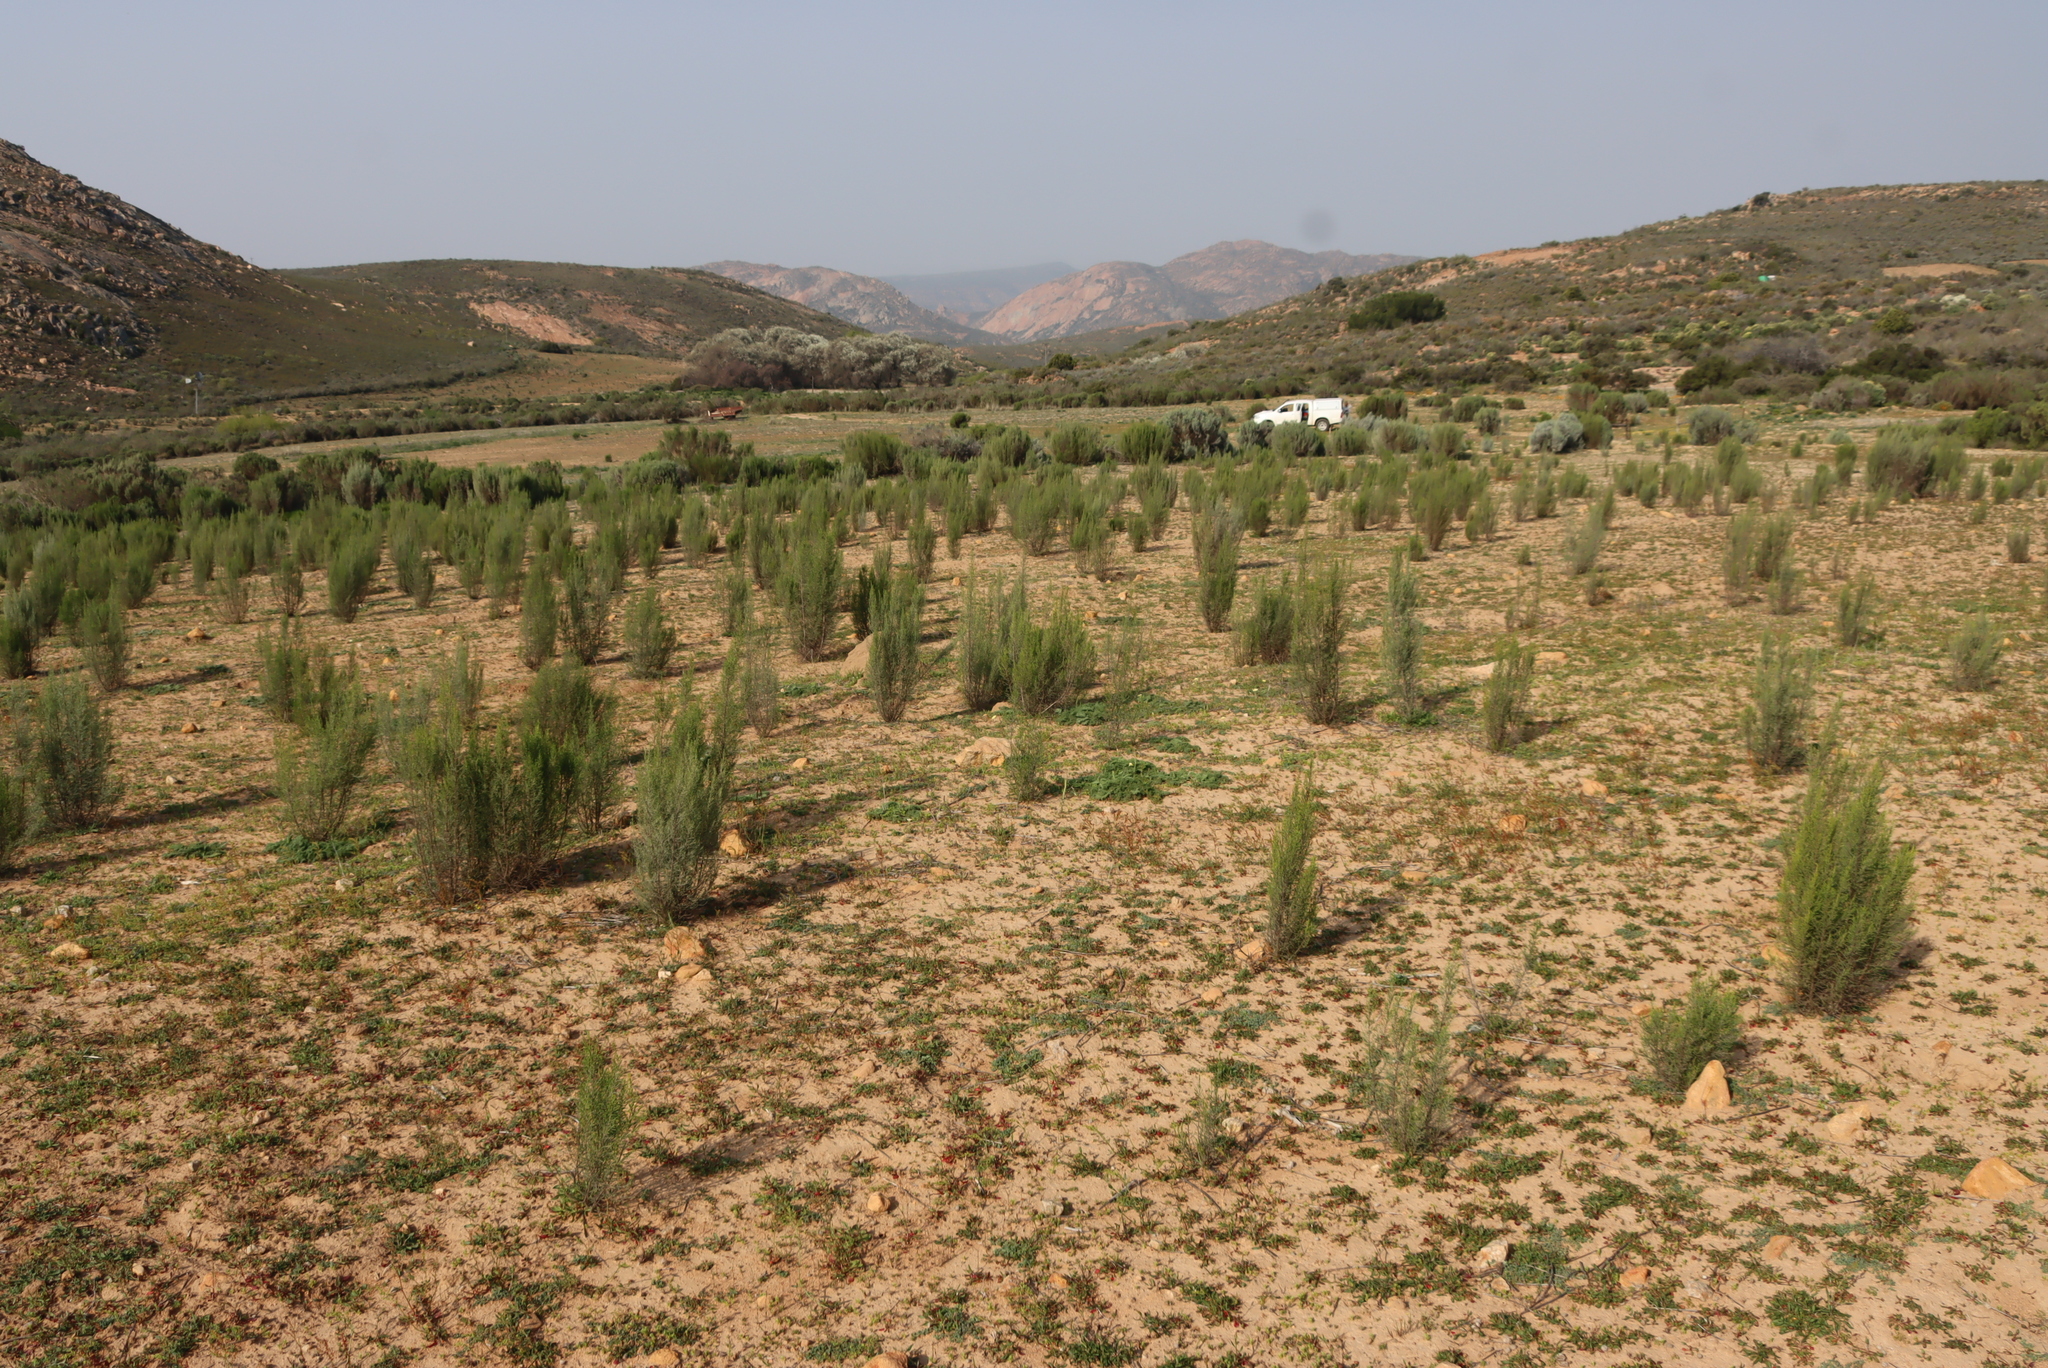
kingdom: Plantae
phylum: Tracheophyta
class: Magnoliopsida
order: Asterales
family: Asteraceae
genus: Dicerothamnus
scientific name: Dicerothamnus rhinocerotis
